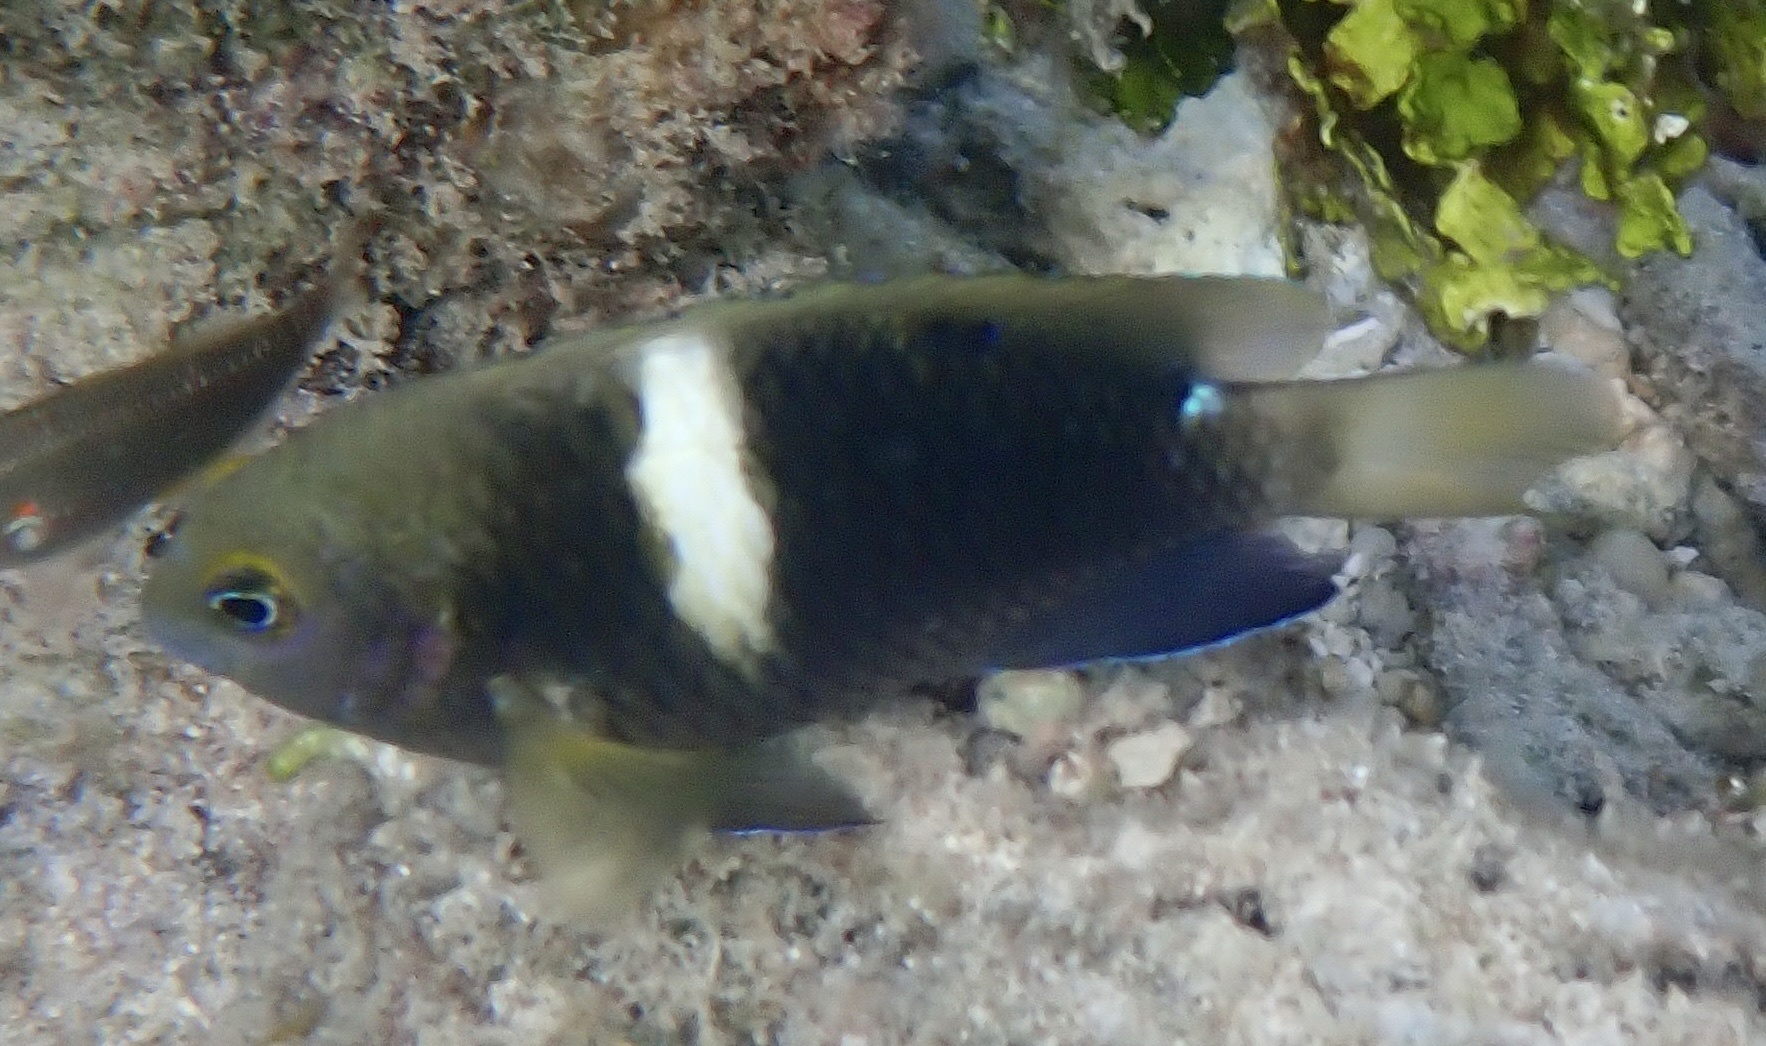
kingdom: Animalia
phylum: Chordata
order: Perciformes
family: Pomacentridae
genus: Chrysiptera
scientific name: Chrysiptera biocellata
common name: Twinspot damselfish
